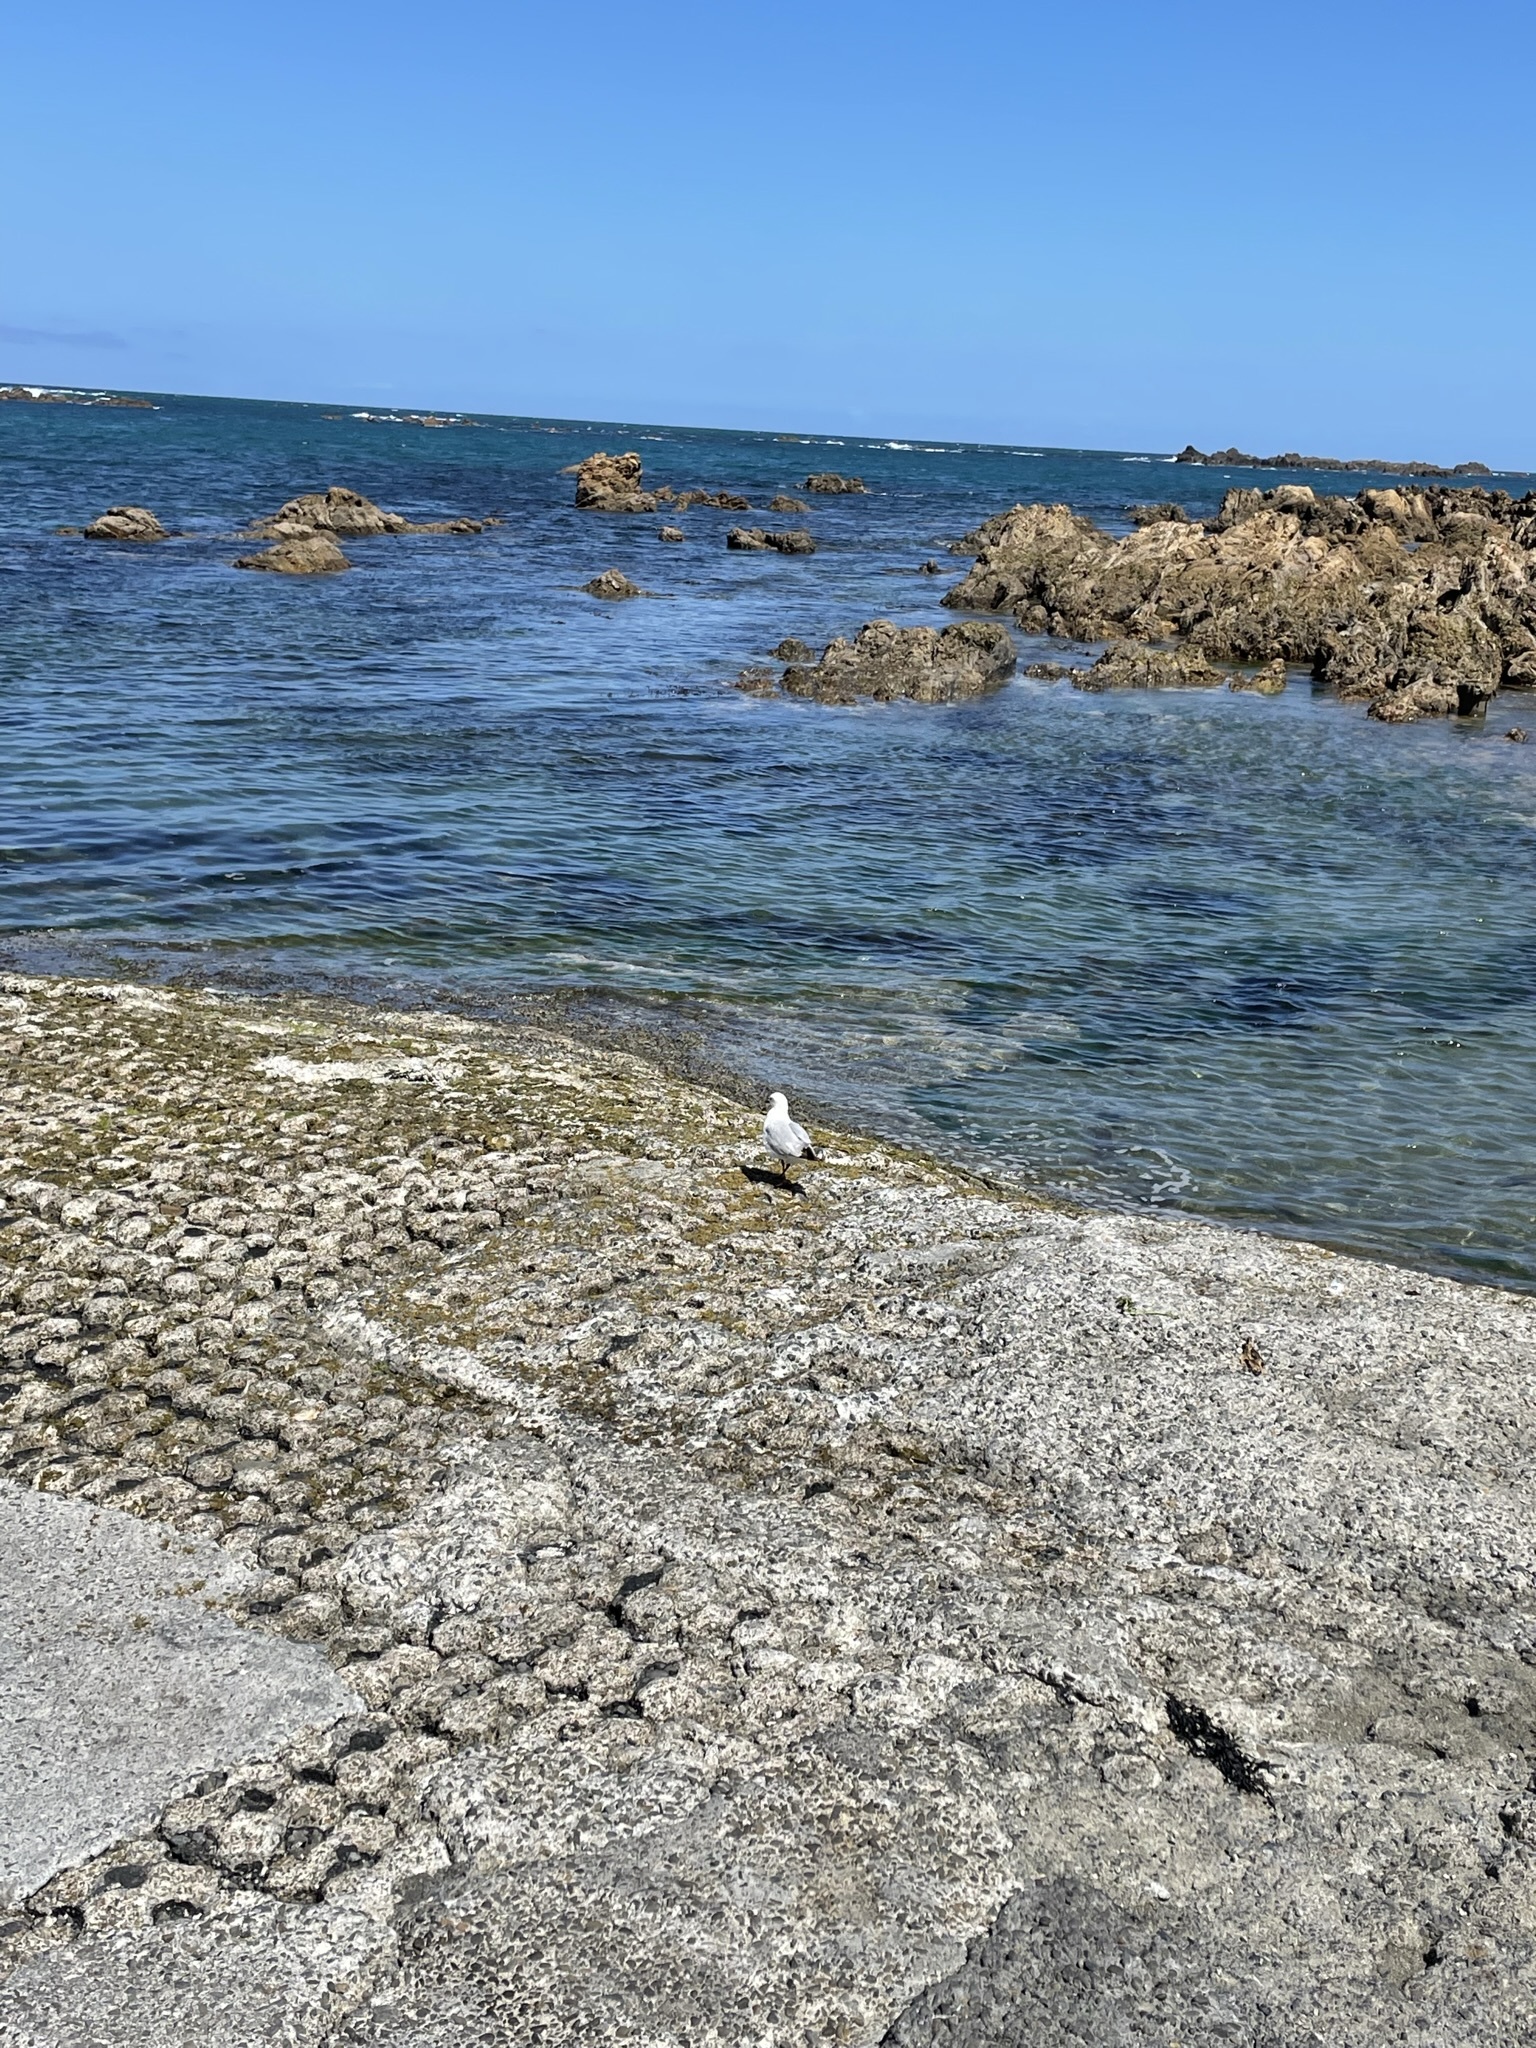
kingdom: Animalia
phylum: Chordata
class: Aves
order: Charadriiformes
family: Laridae
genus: Chroicocephalus
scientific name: Chroicocephalus novaehollandiae
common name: Silver gull
